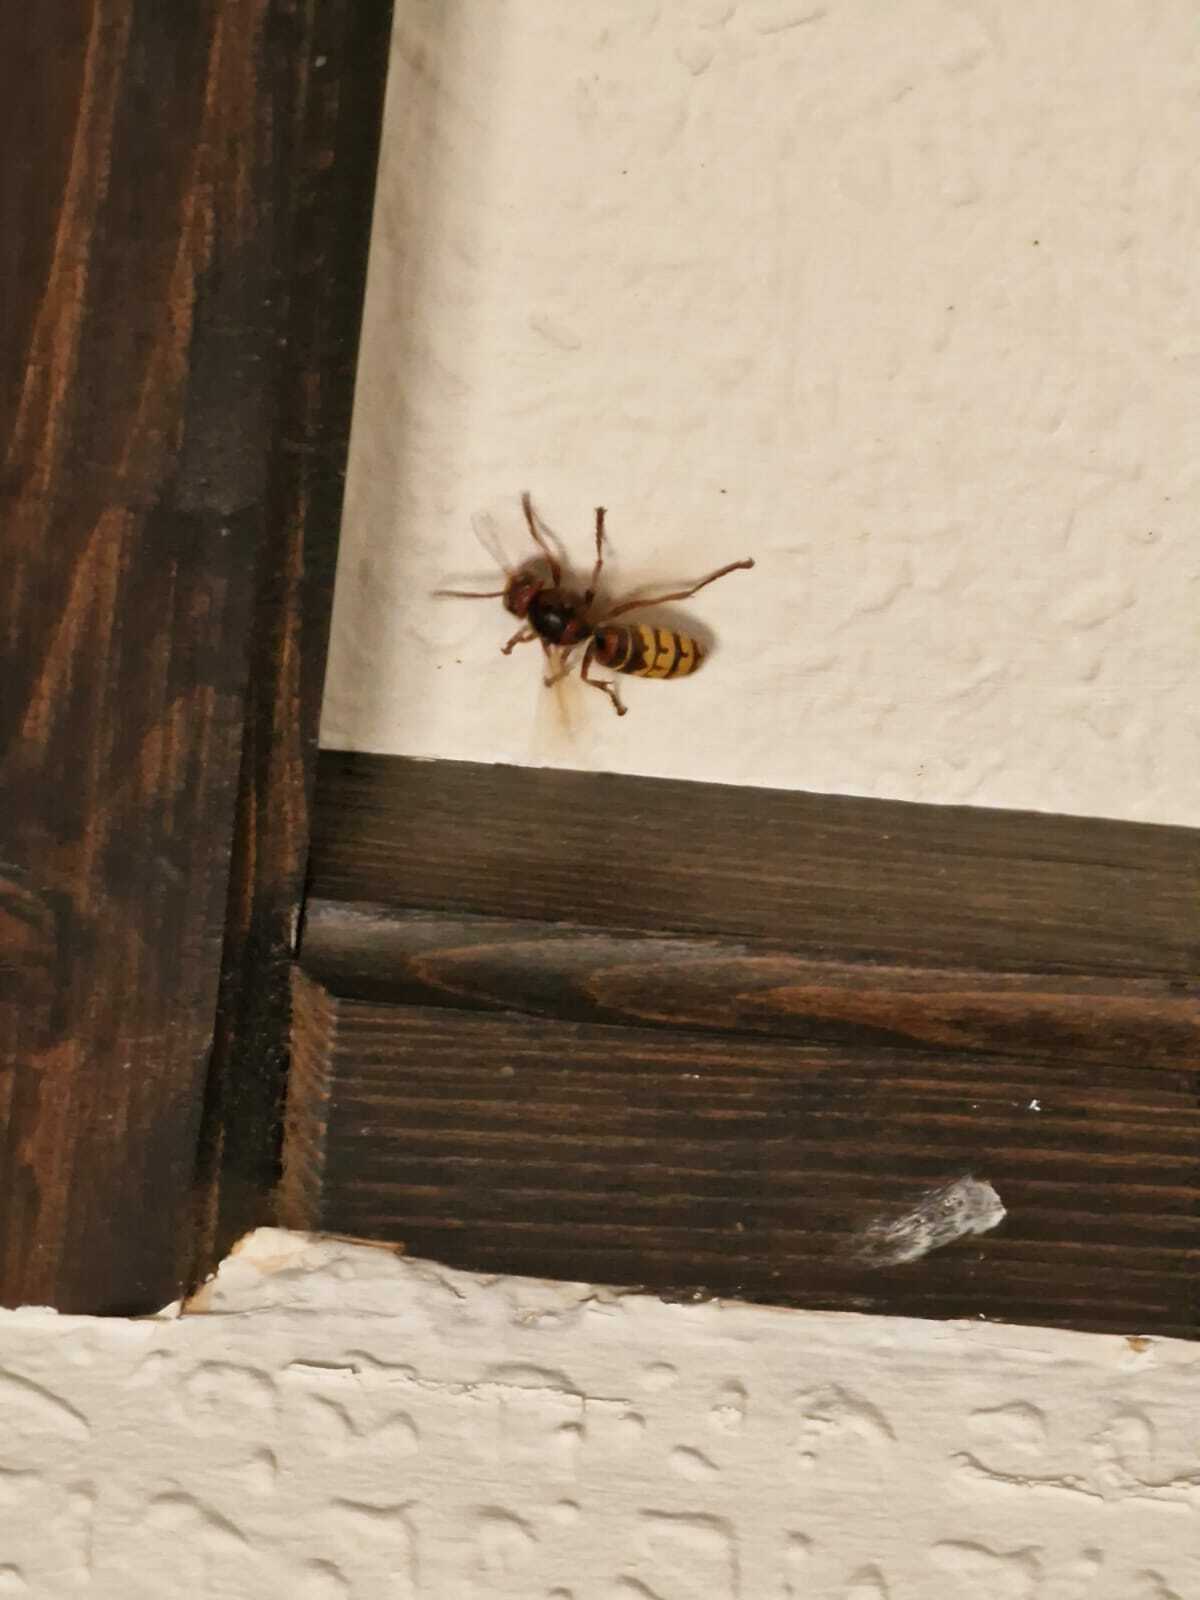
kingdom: Animalia
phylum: Arthropoda
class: Insecta
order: Hymenoptera
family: Vespidae
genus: Vespa
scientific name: Vespa crabro
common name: Hornet
